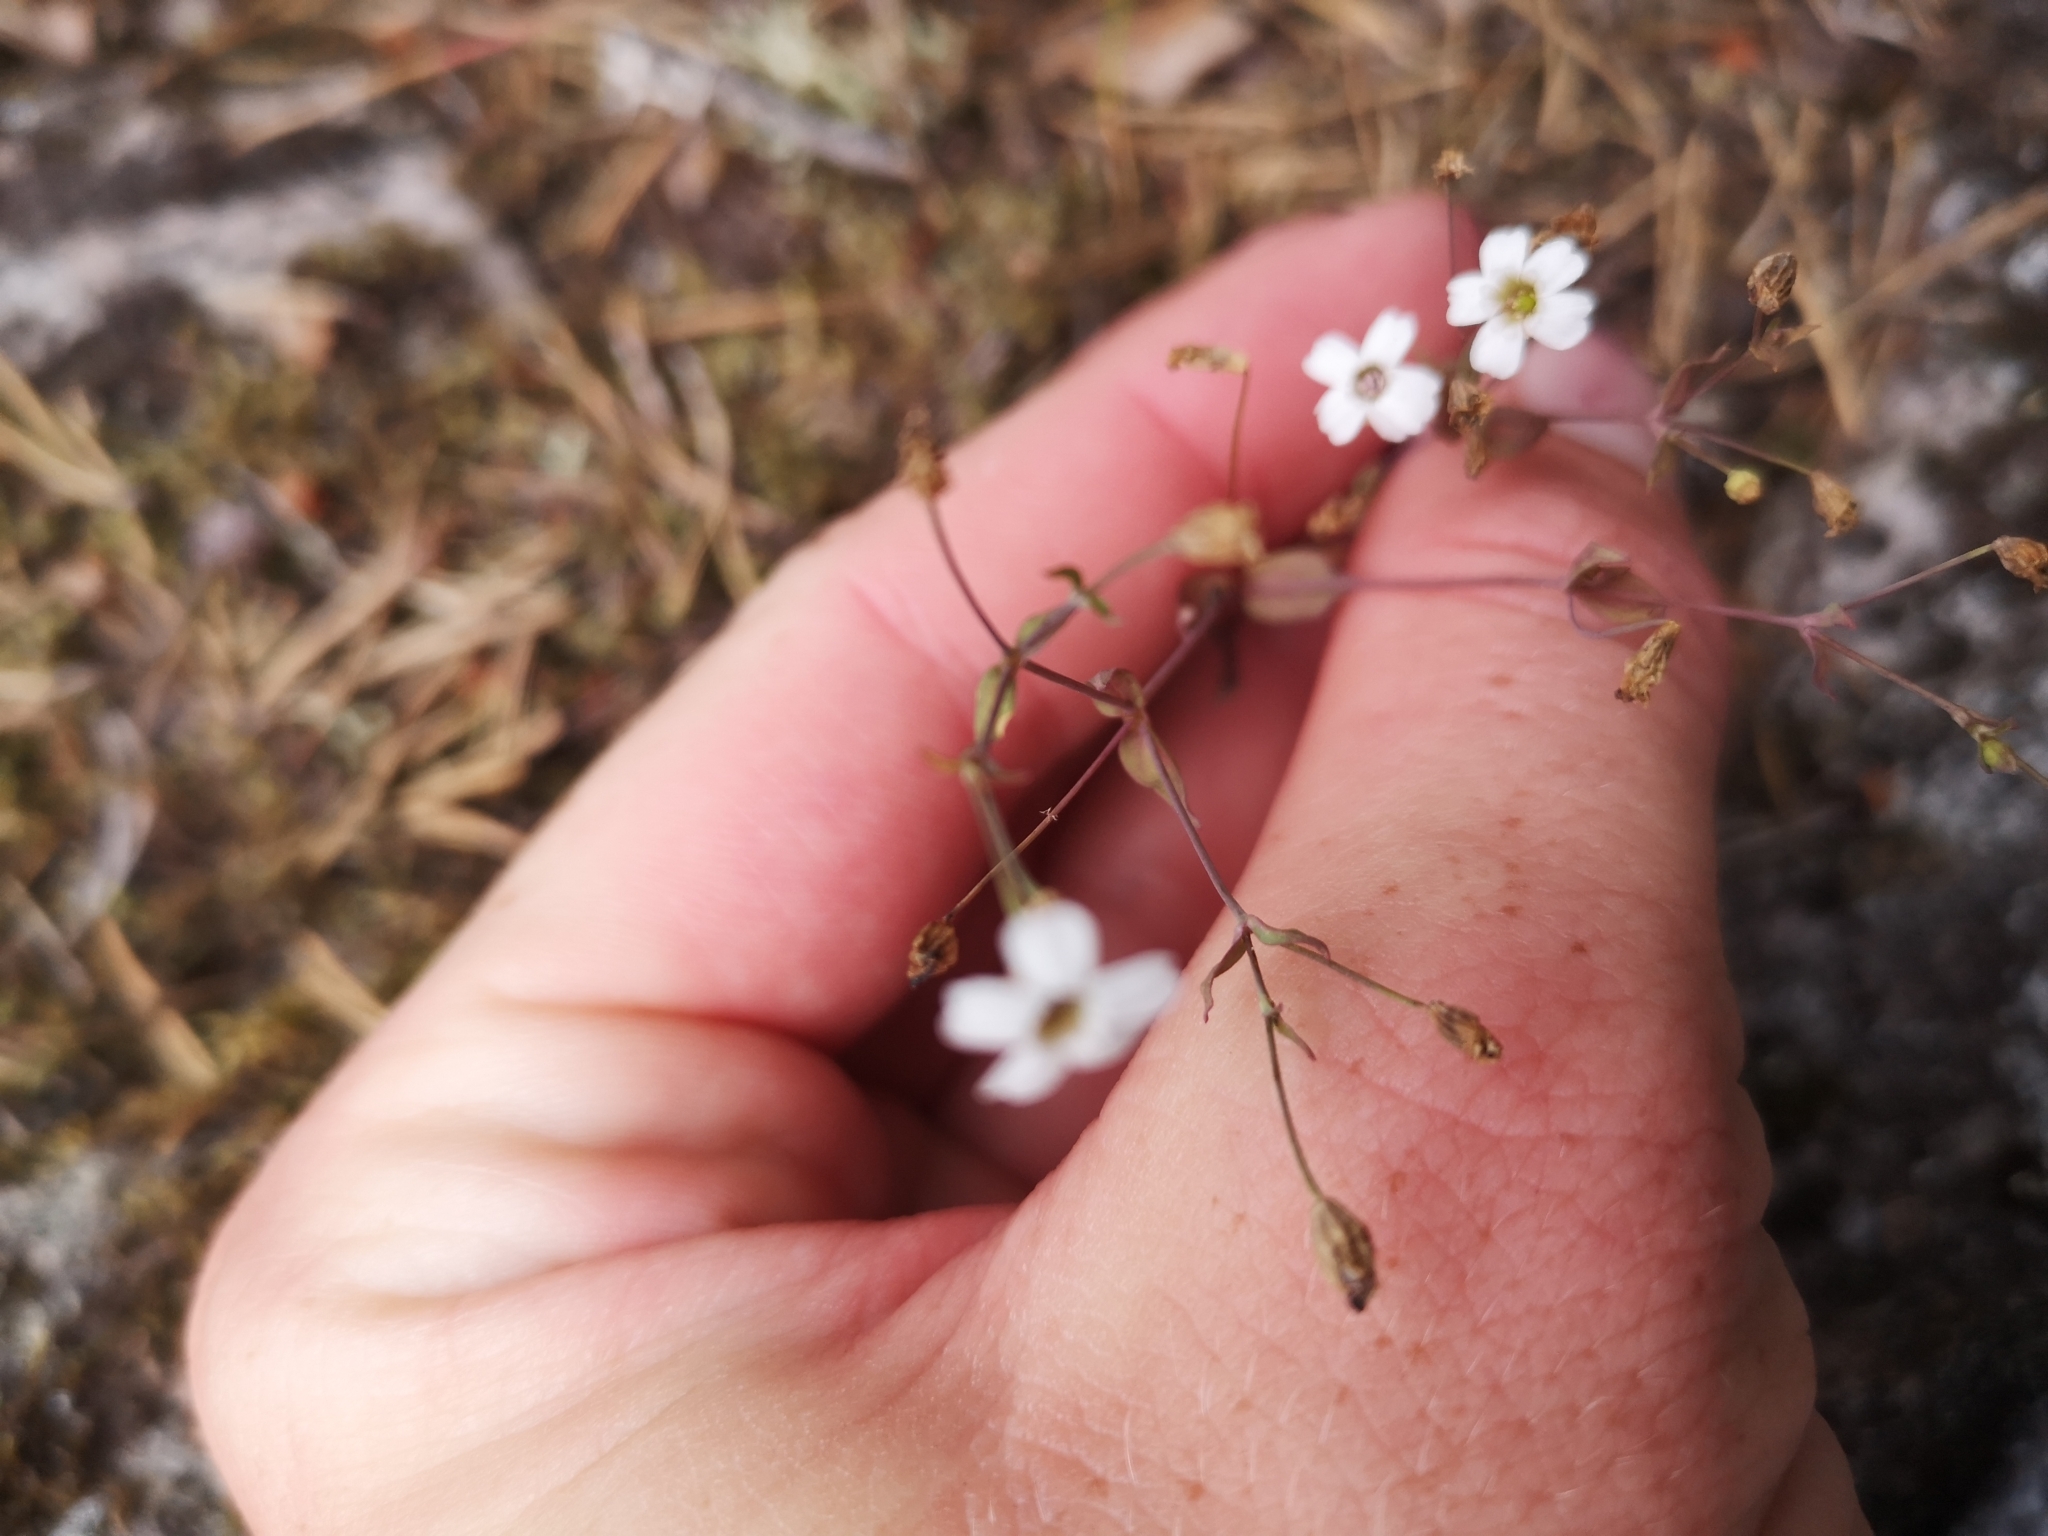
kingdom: Plantae
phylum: Tracheophyta
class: Magnoliopsida
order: Caryophyllales
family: Caryophyllaceae
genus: Atocion
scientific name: Atocion rupestre
